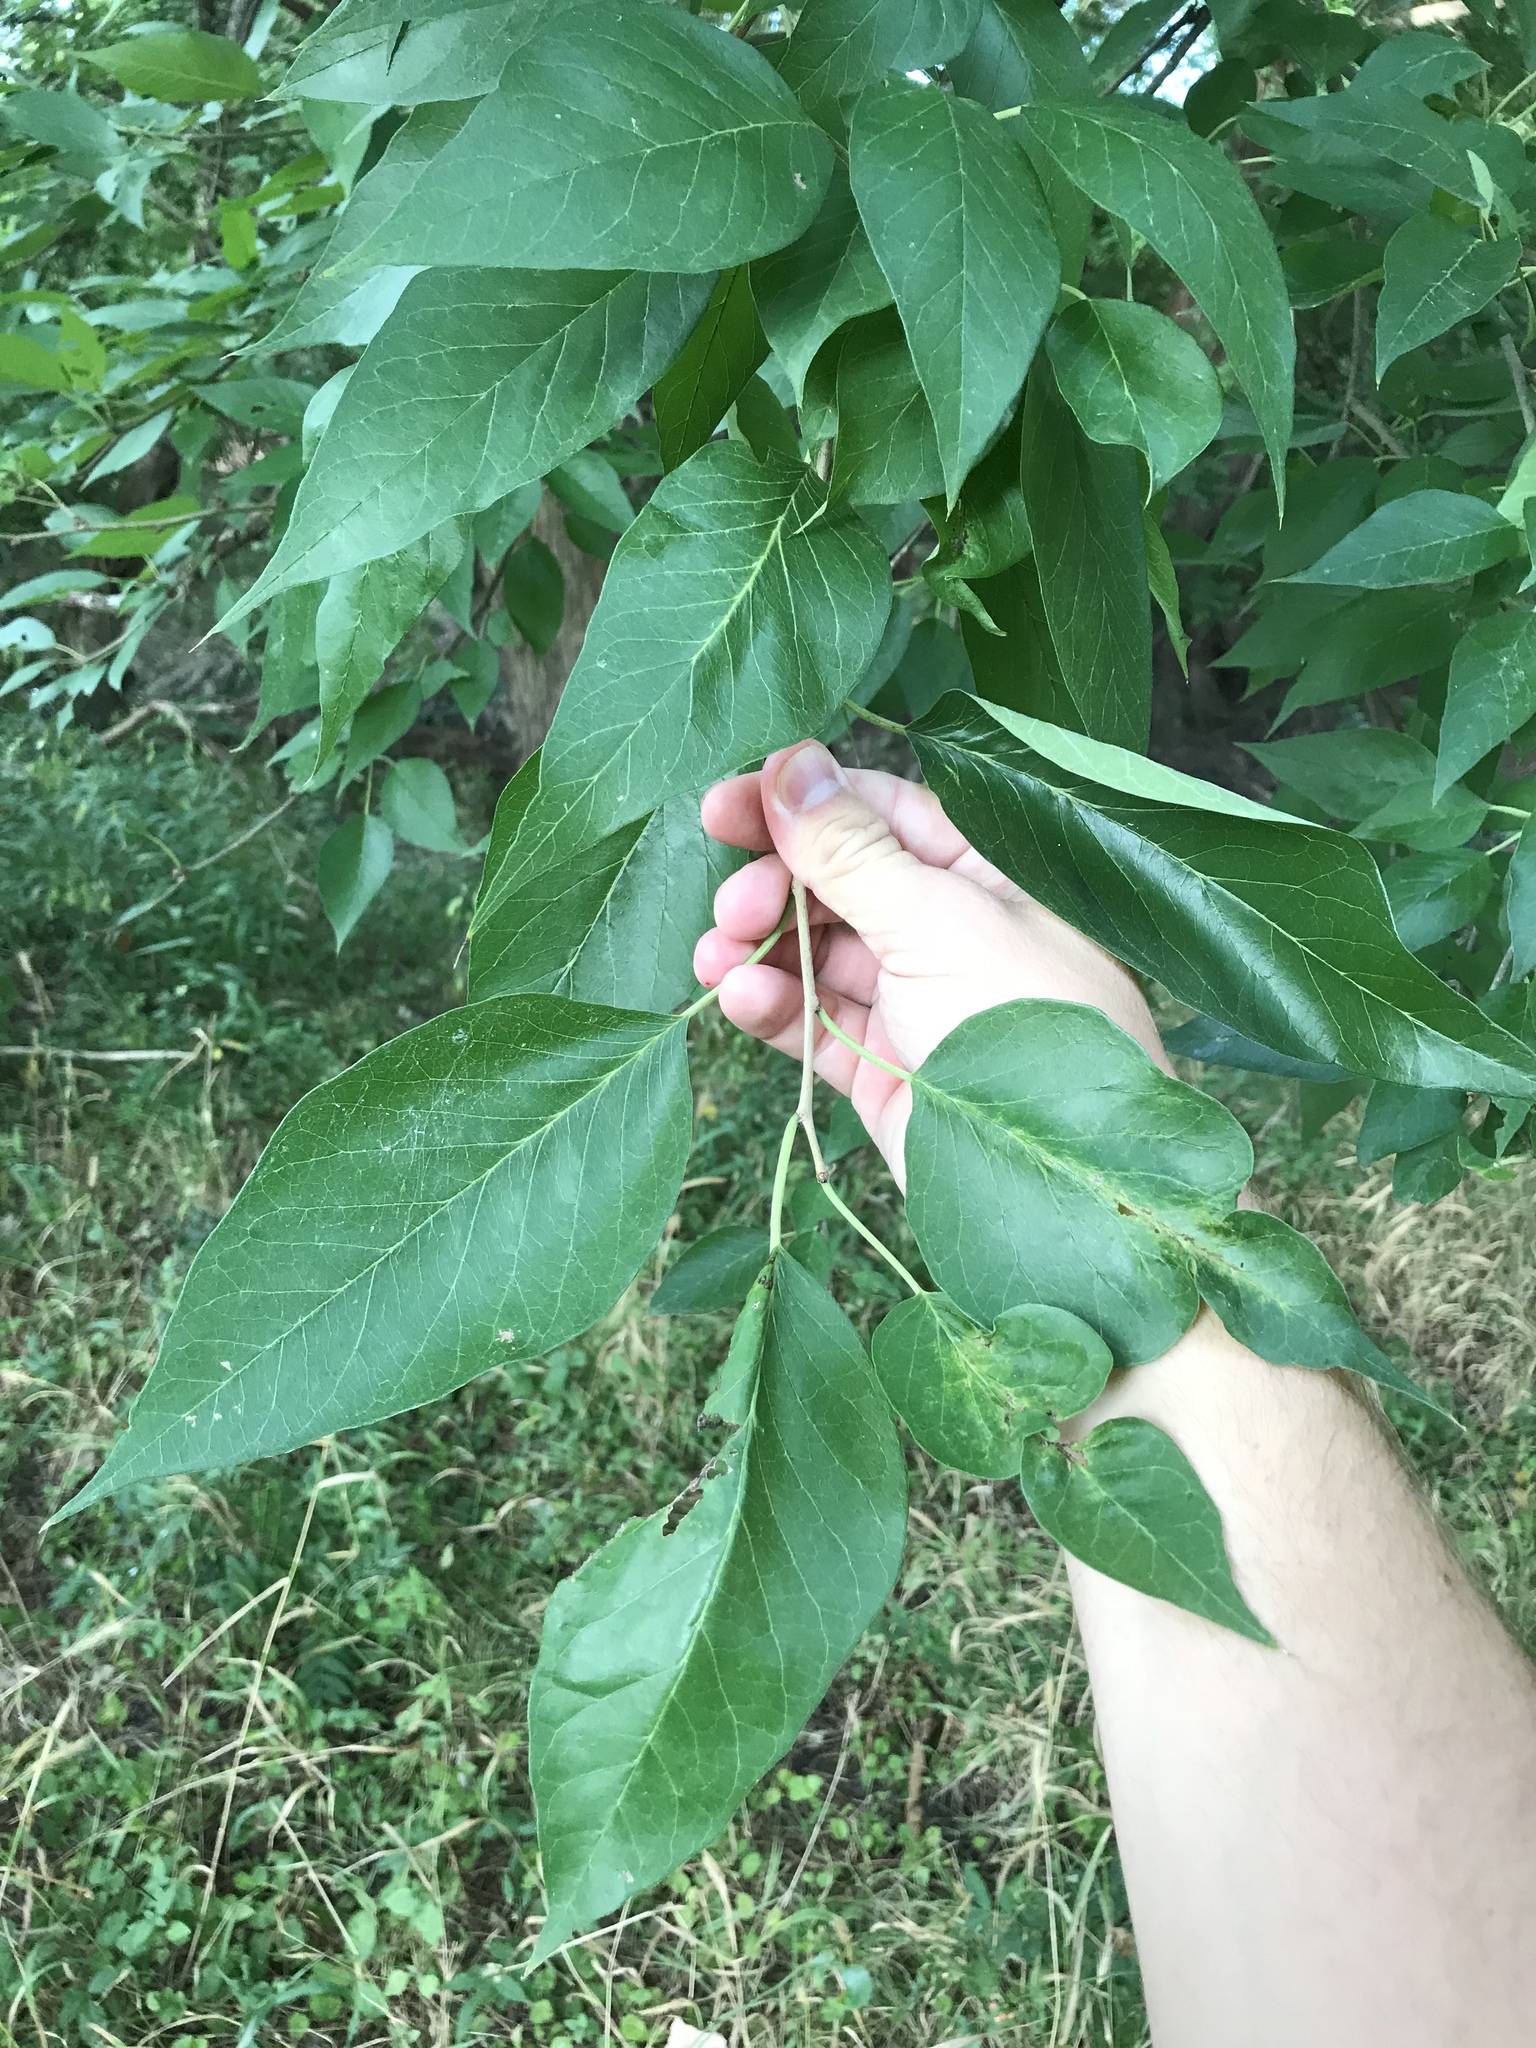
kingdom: Plantae
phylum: Tracheophyta
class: Magnoliopsida
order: Rosales
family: Moraceae
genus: Maclura
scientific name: Maclura pomifera
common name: Osage-orange
